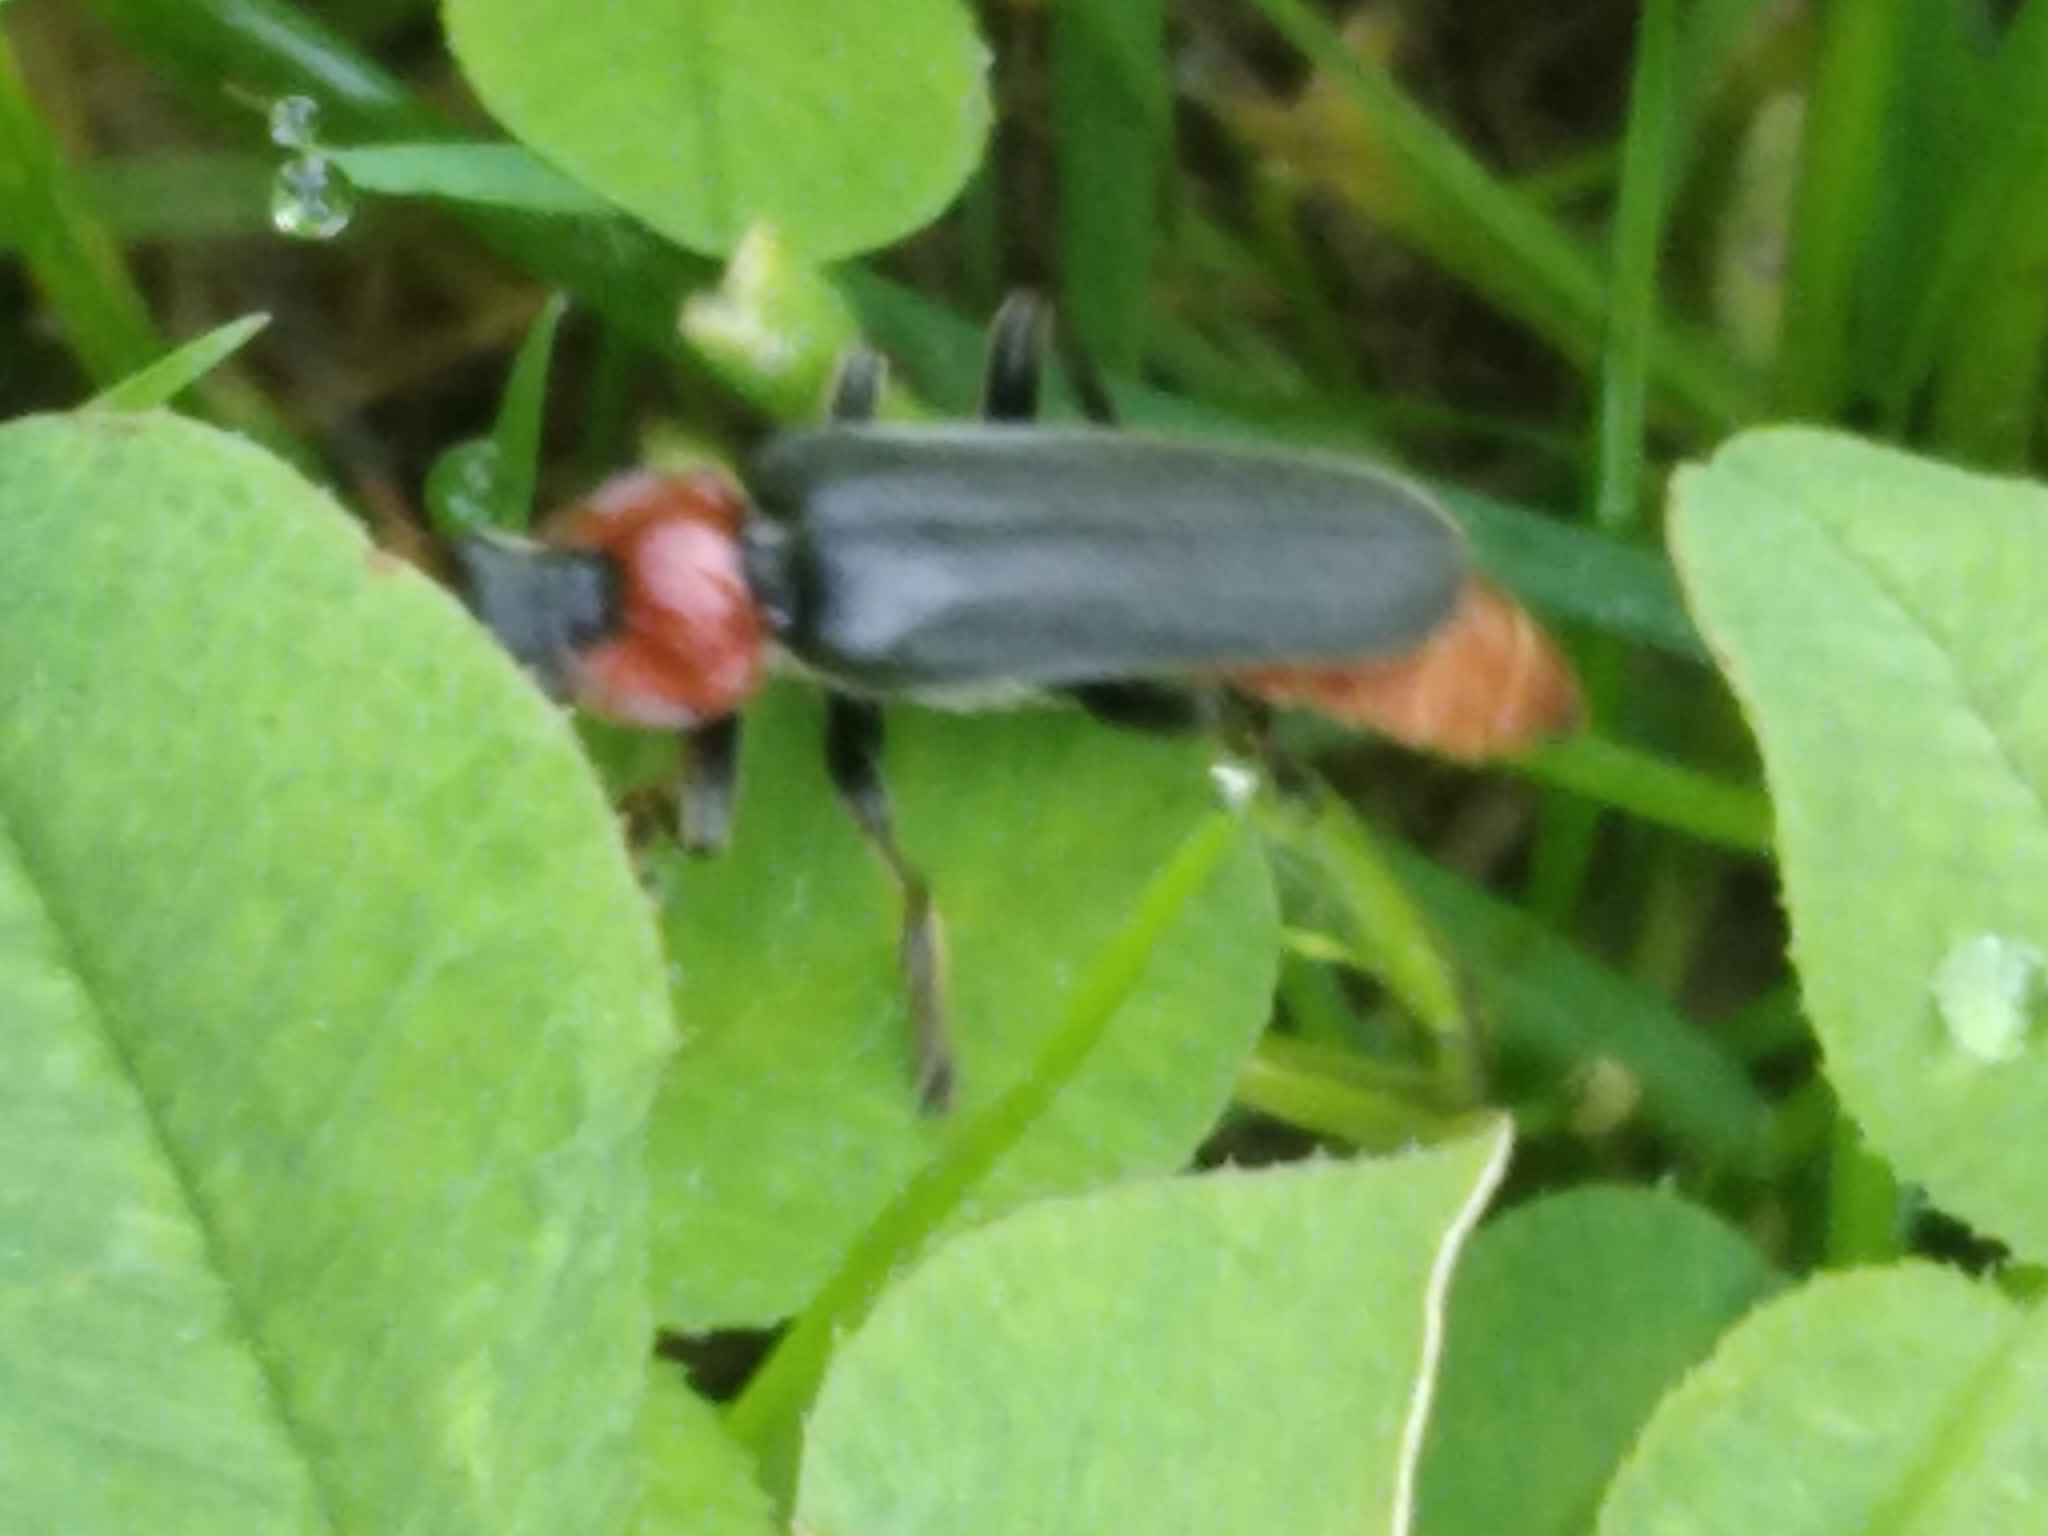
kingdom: Animalia
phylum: Arthropoda
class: Insecta
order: Coleoptera
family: Cantharidae
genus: Cantharis
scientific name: Cantharis fusca
